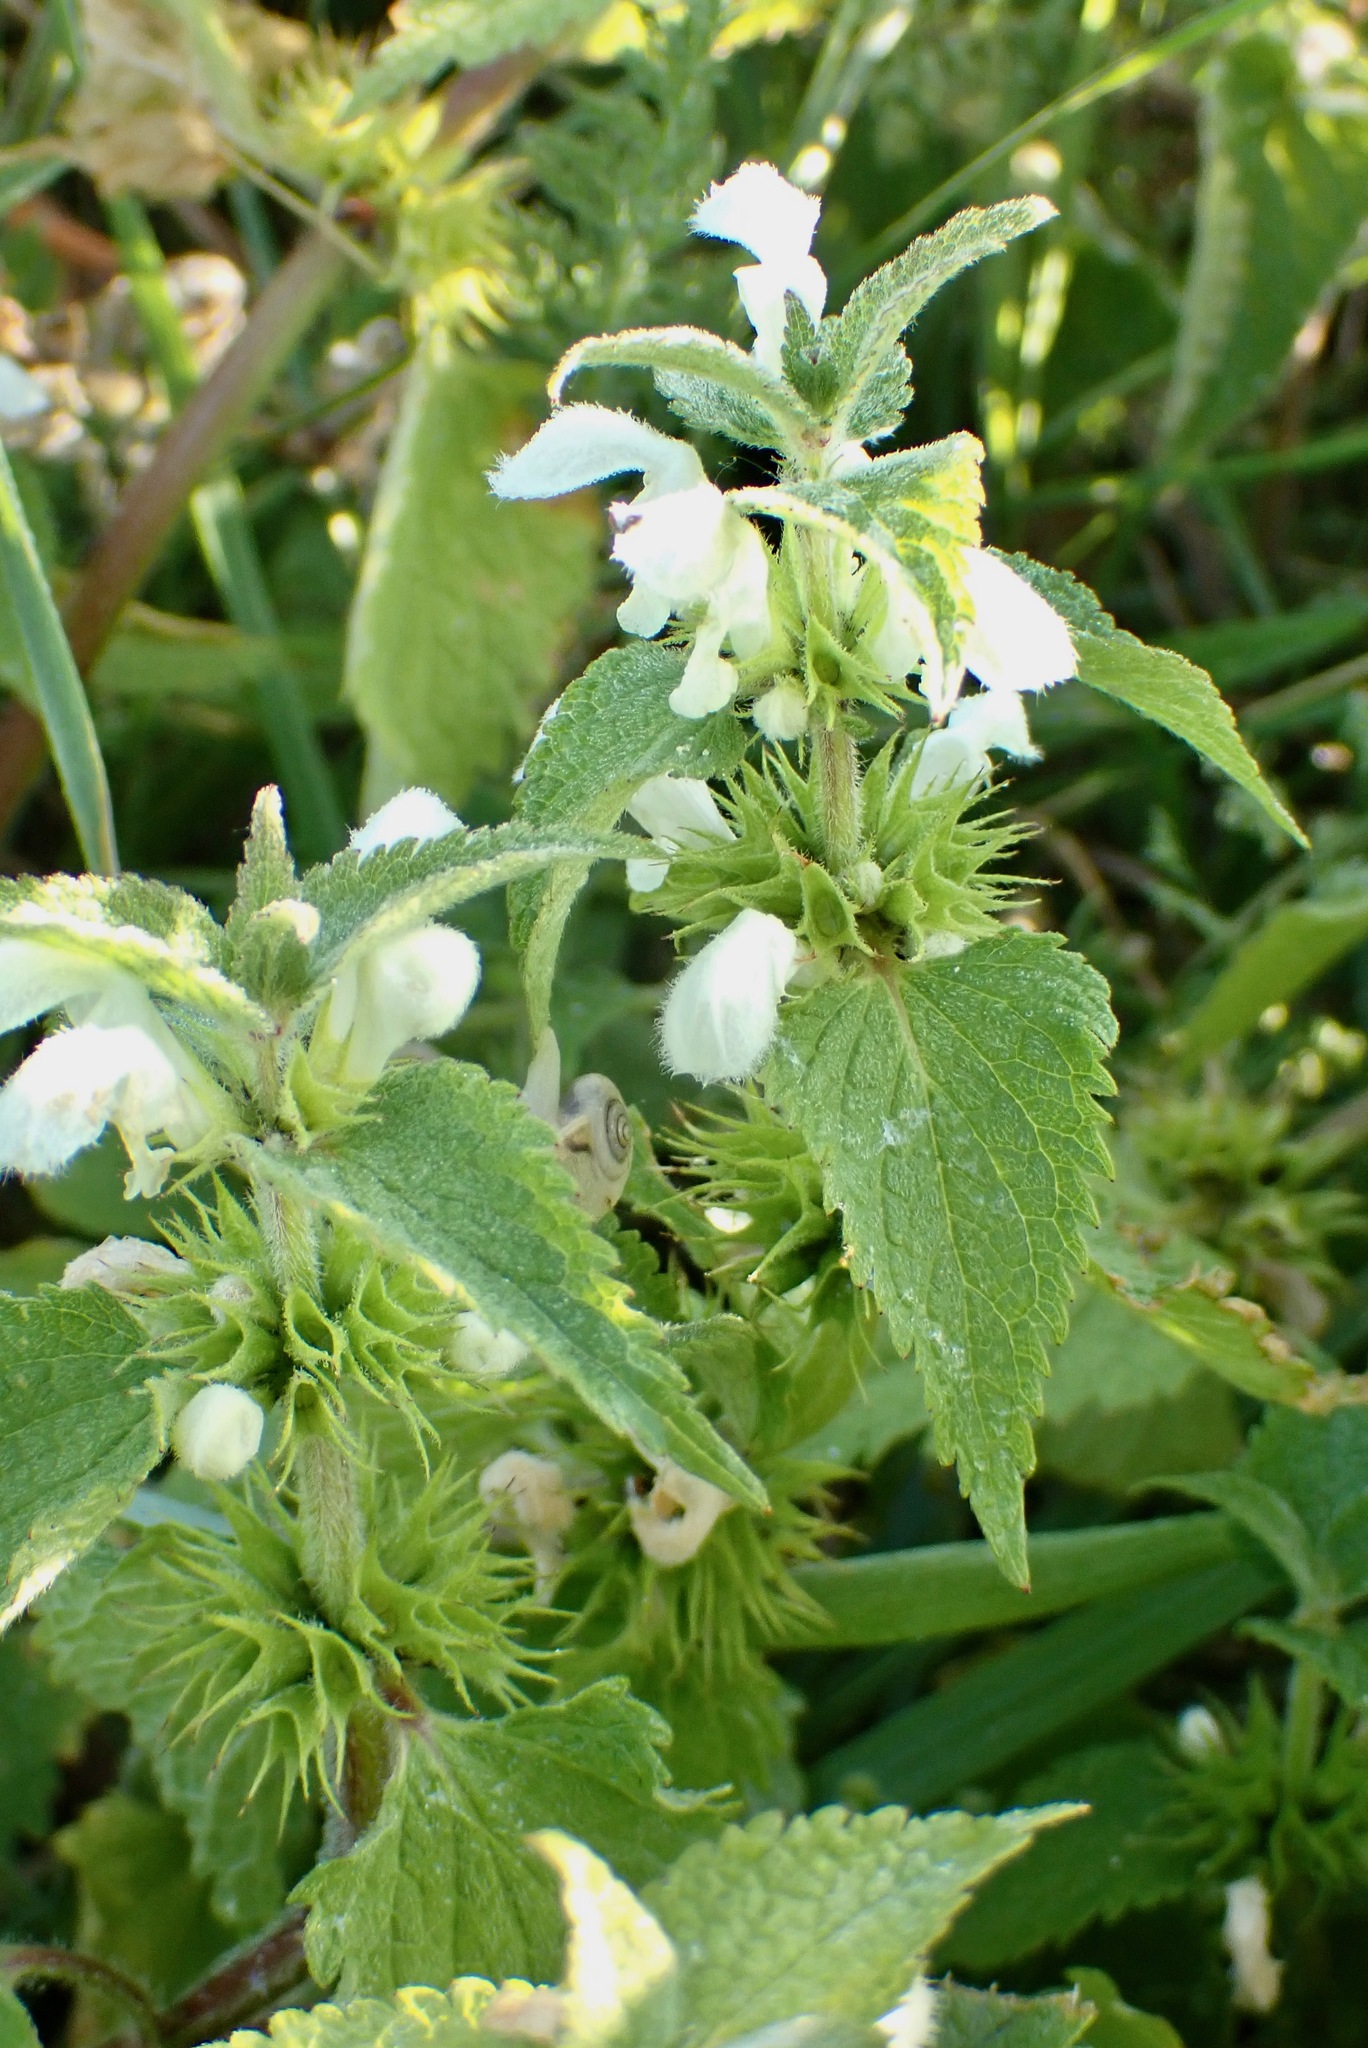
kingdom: Plantae
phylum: Tracheophyta
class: Magnoliopsida
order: Lamiales
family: Lamiaceae
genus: Lamium
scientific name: Lamium album
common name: White dead-nettle
